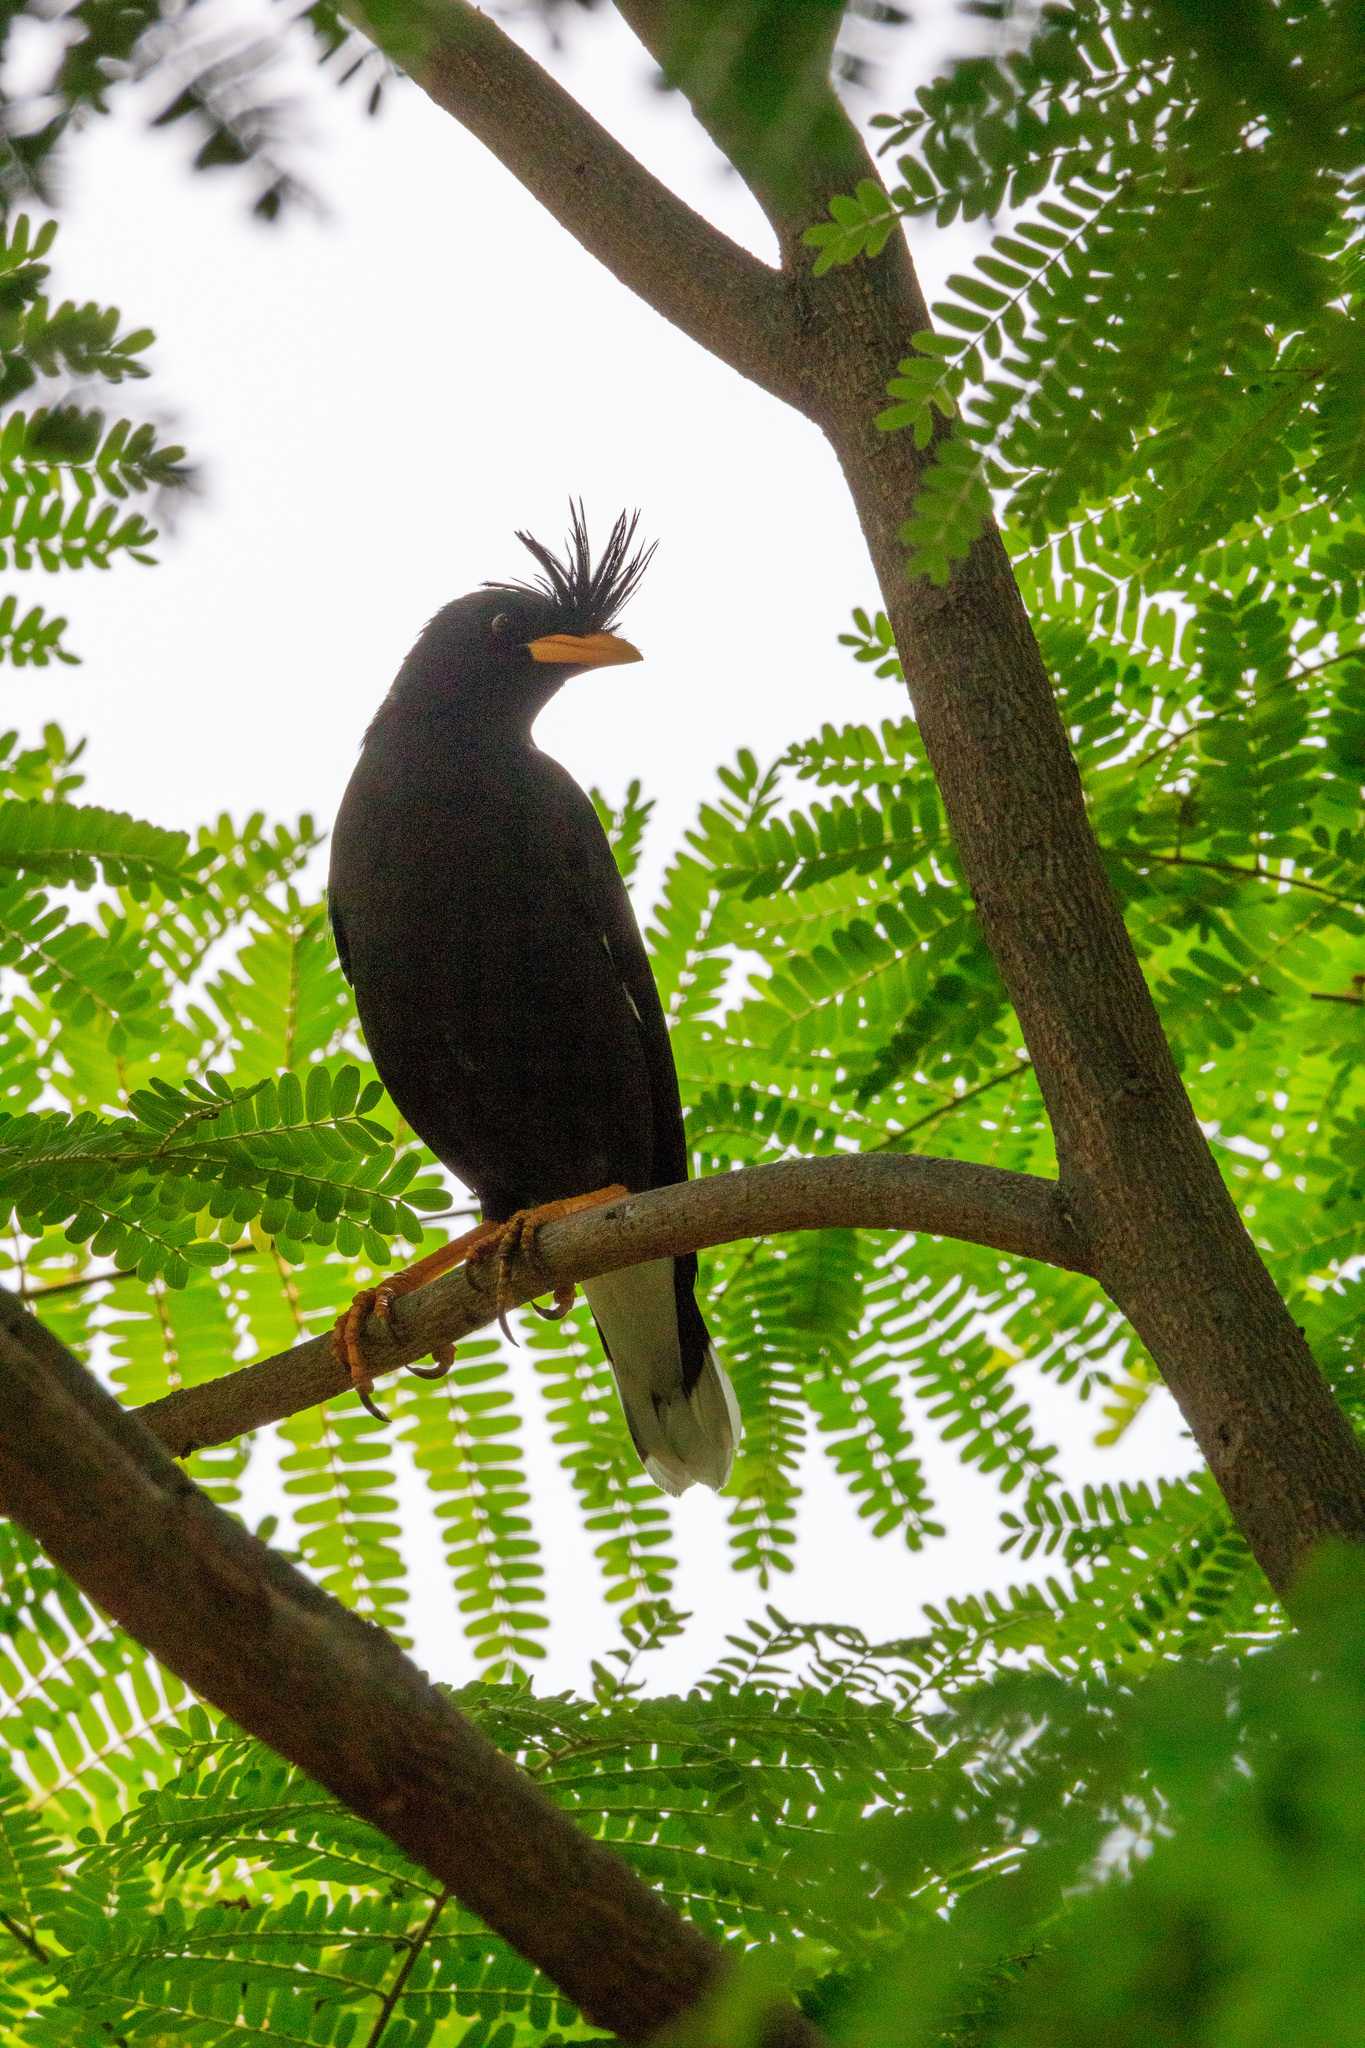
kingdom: Animalia
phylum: Chordata
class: Aves
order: Passeriformes
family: Sturnidae
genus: Acridotheres
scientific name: Acridotheres grandis
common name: Great myna
